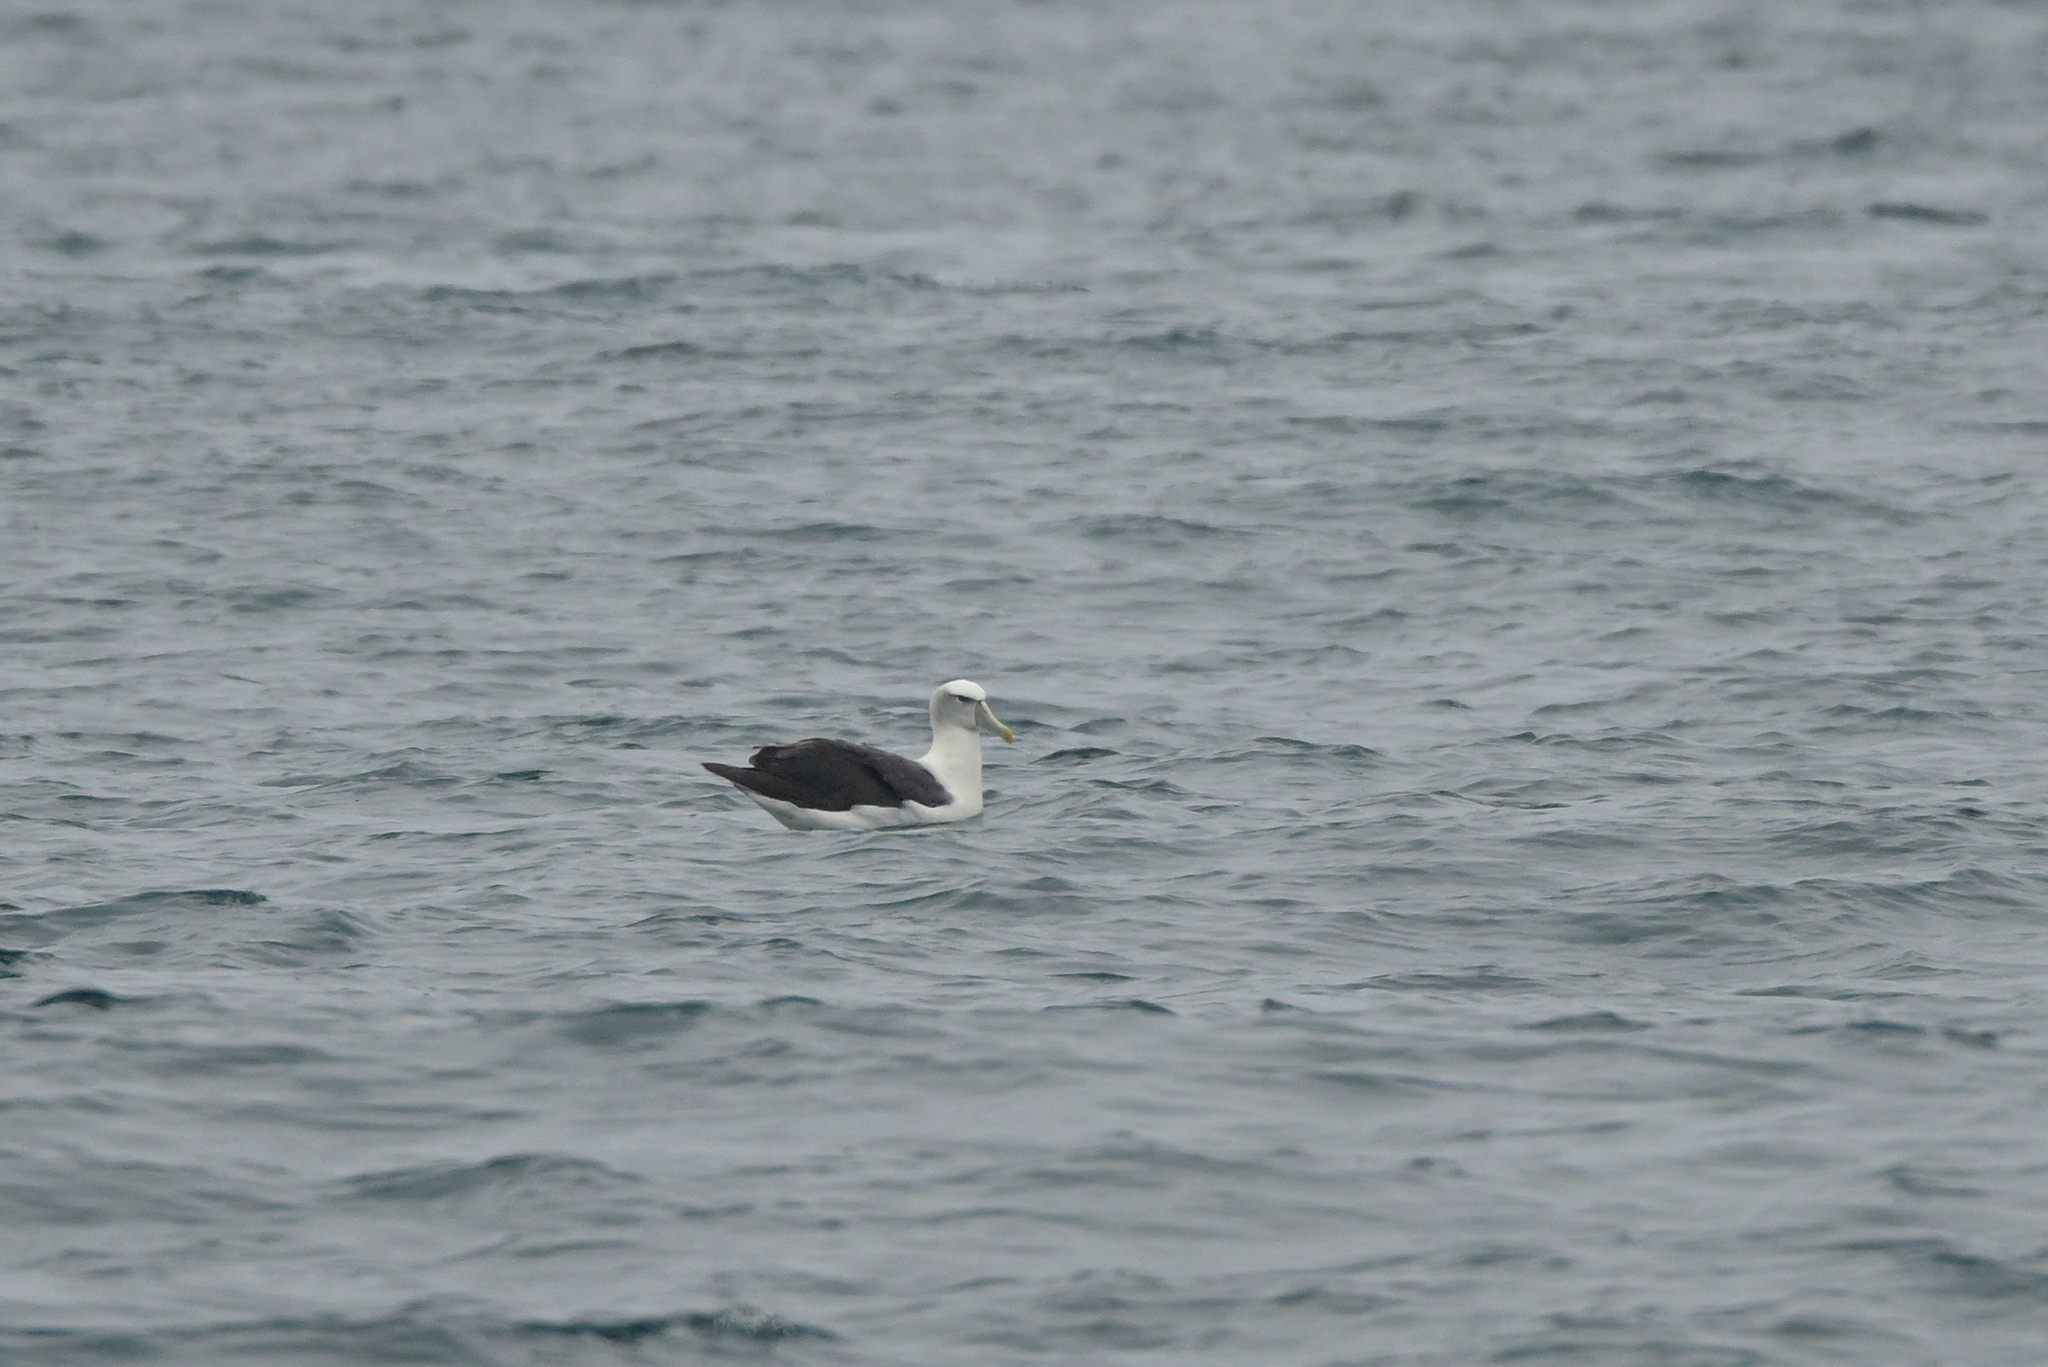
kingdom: Animalia
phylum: Chordata
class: Aves
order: Procellariiformes
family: Diomedeidae
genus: Thalassarche
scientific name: Thalassarche cauta
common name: Shy albatross
